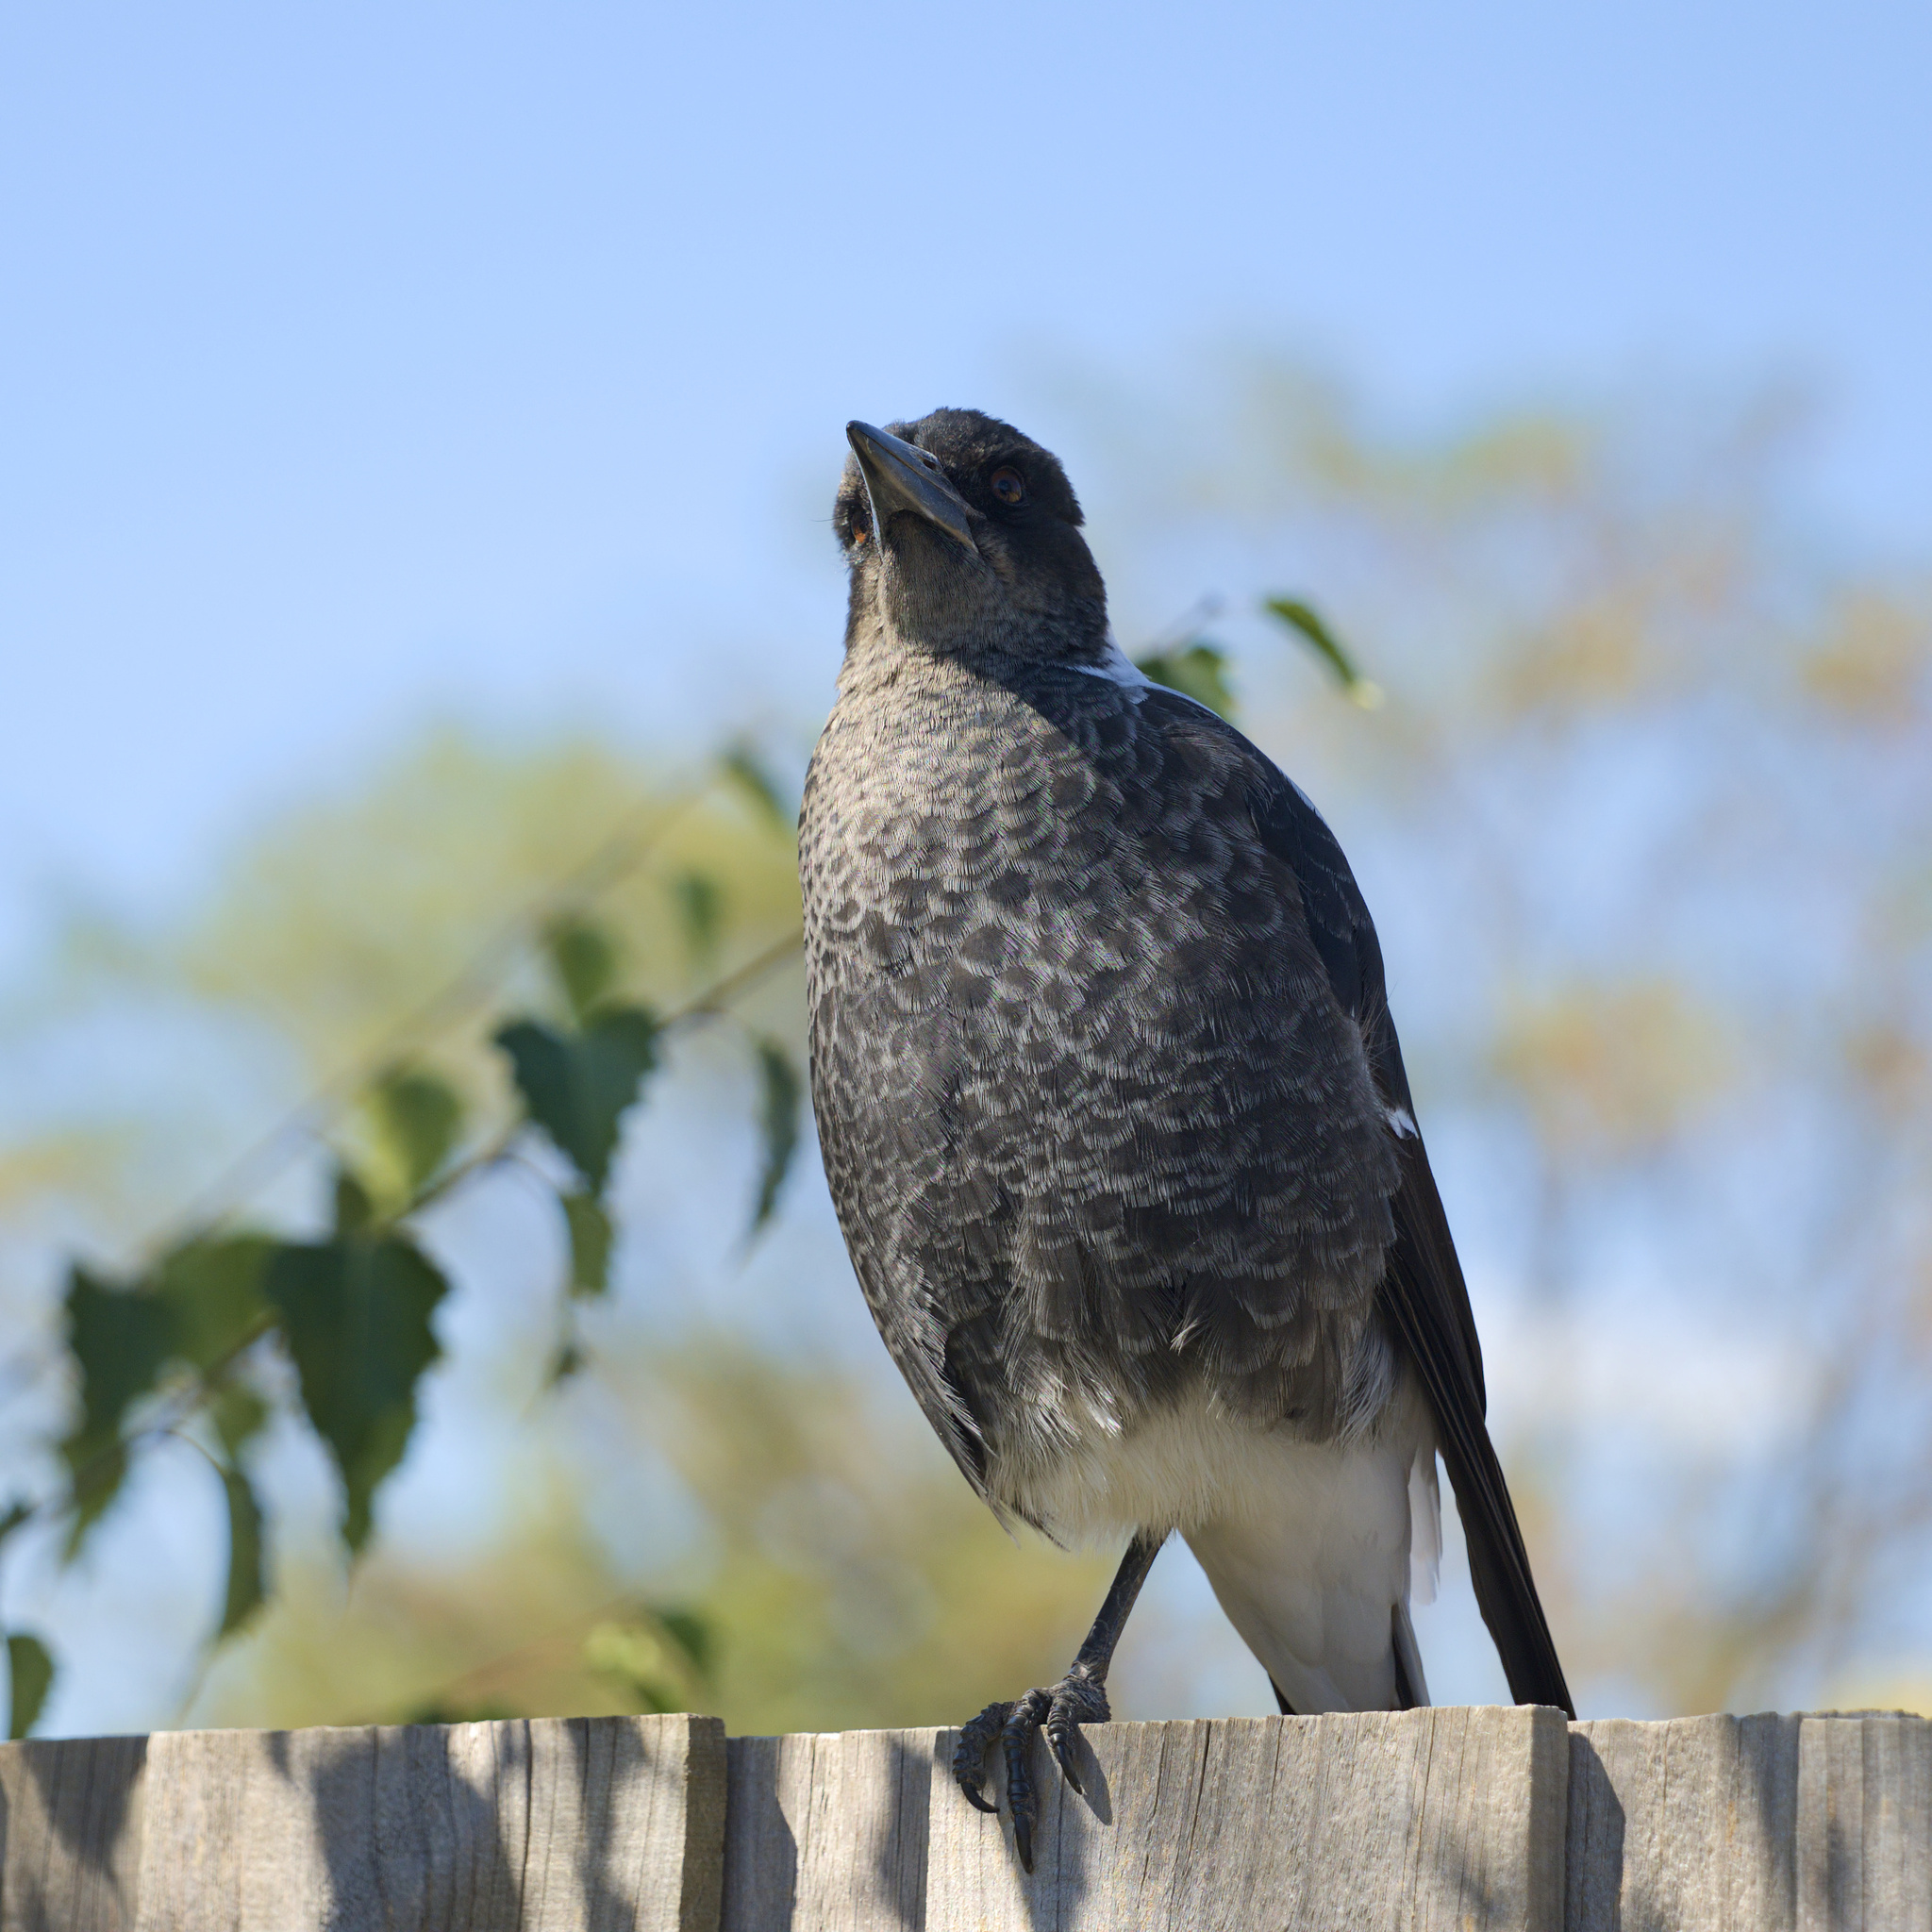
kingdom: Animalia
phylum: Chordata
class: Aves
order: Passeriformes
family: Cracticidae
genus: Gymnorhina
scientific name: Gymnorhina tibicen
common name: Australian magpie
